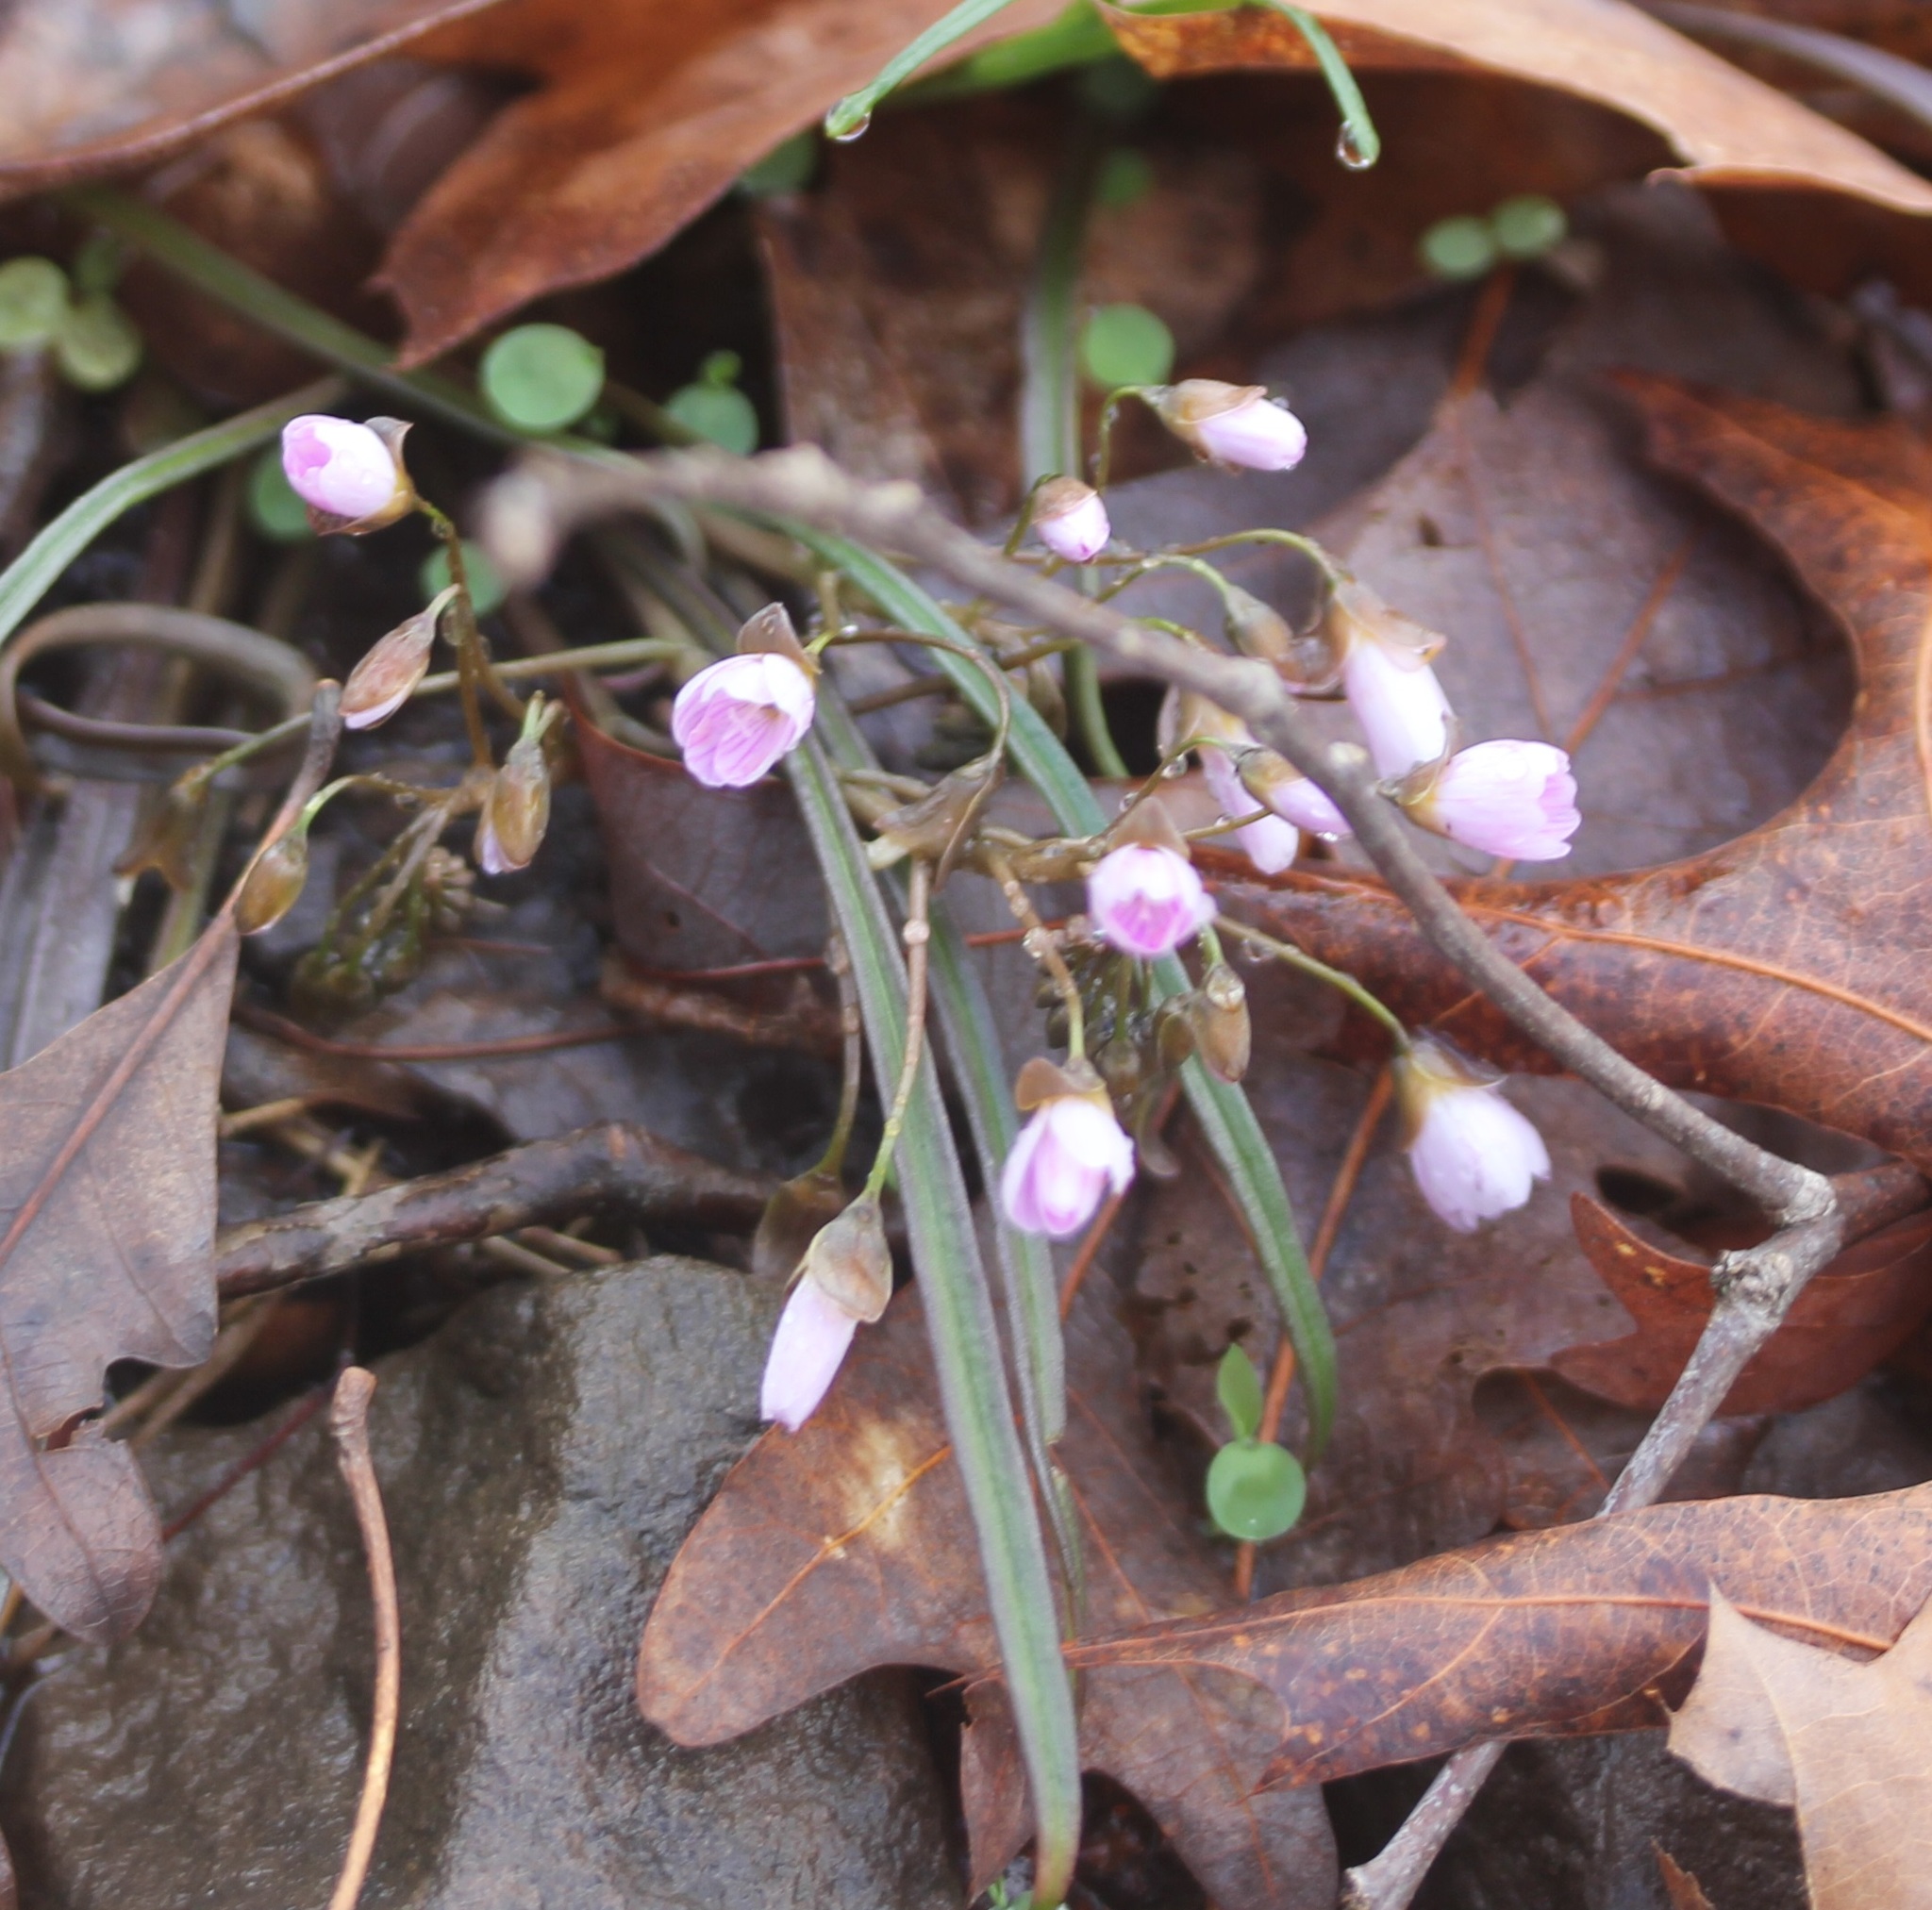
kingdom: Plantae
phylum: Tracheophyta
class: Magnoliopsida
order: Caryophyllales
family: Montiaceae
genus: Claytonia
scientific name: Claytonia virginica
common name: Virginia springbeauty
